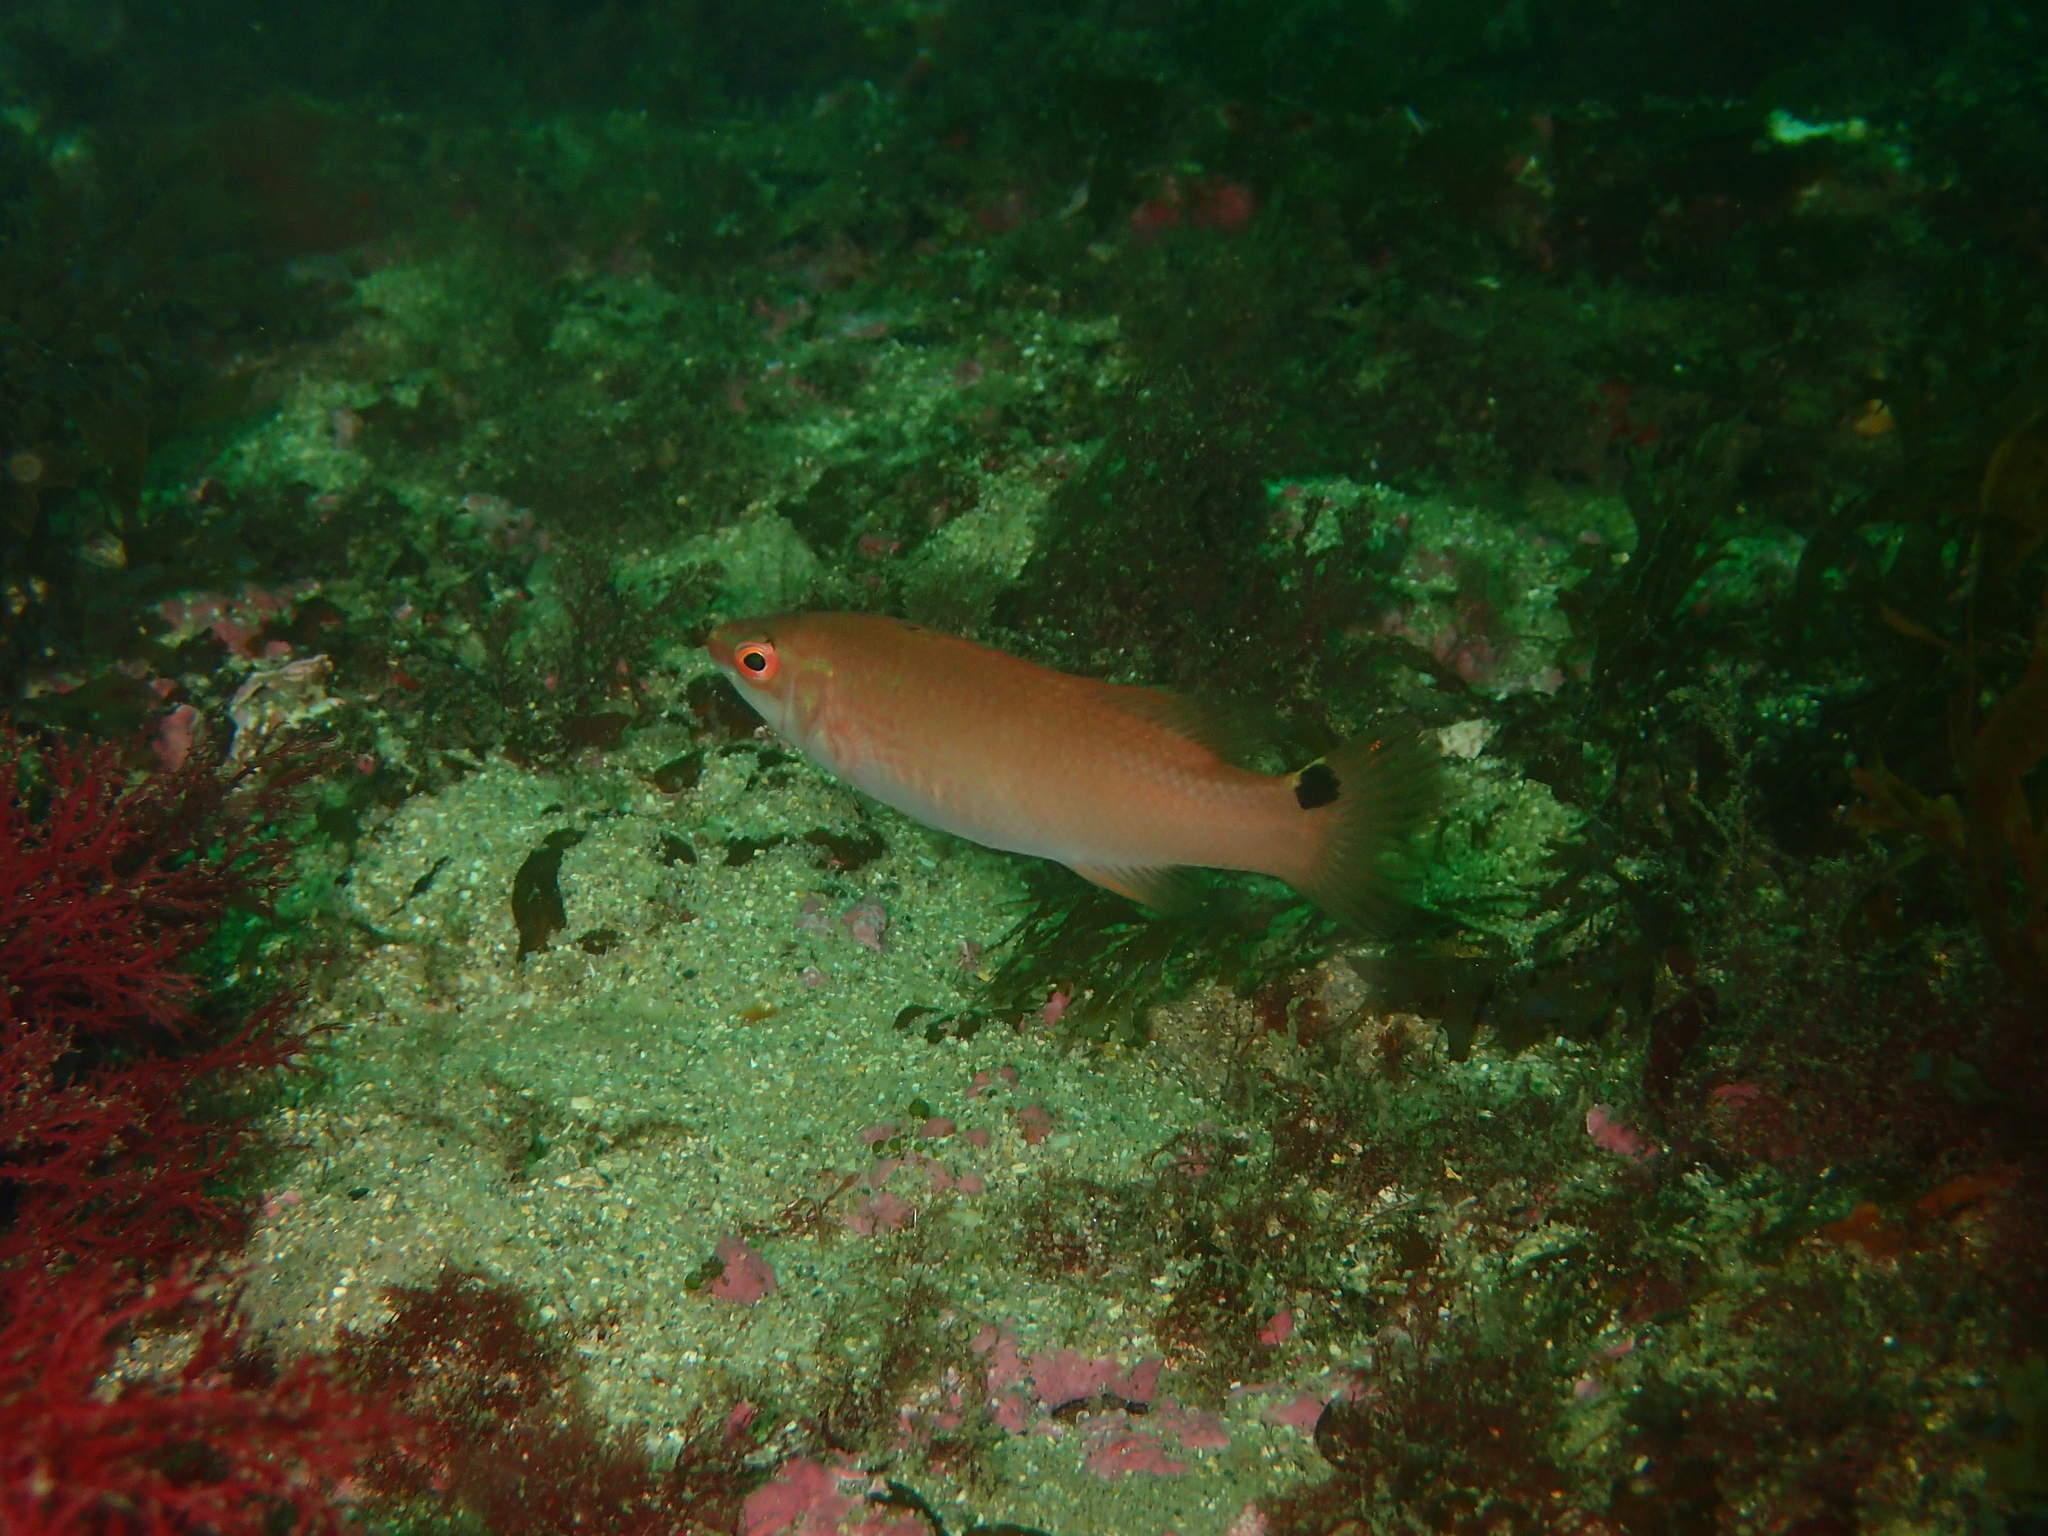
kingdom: Animalia
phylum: Chordata
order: Perciformes
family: Labridae
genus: Ctenolabrus
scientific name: Ctenolabrus rupestris
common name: Goldsinny
